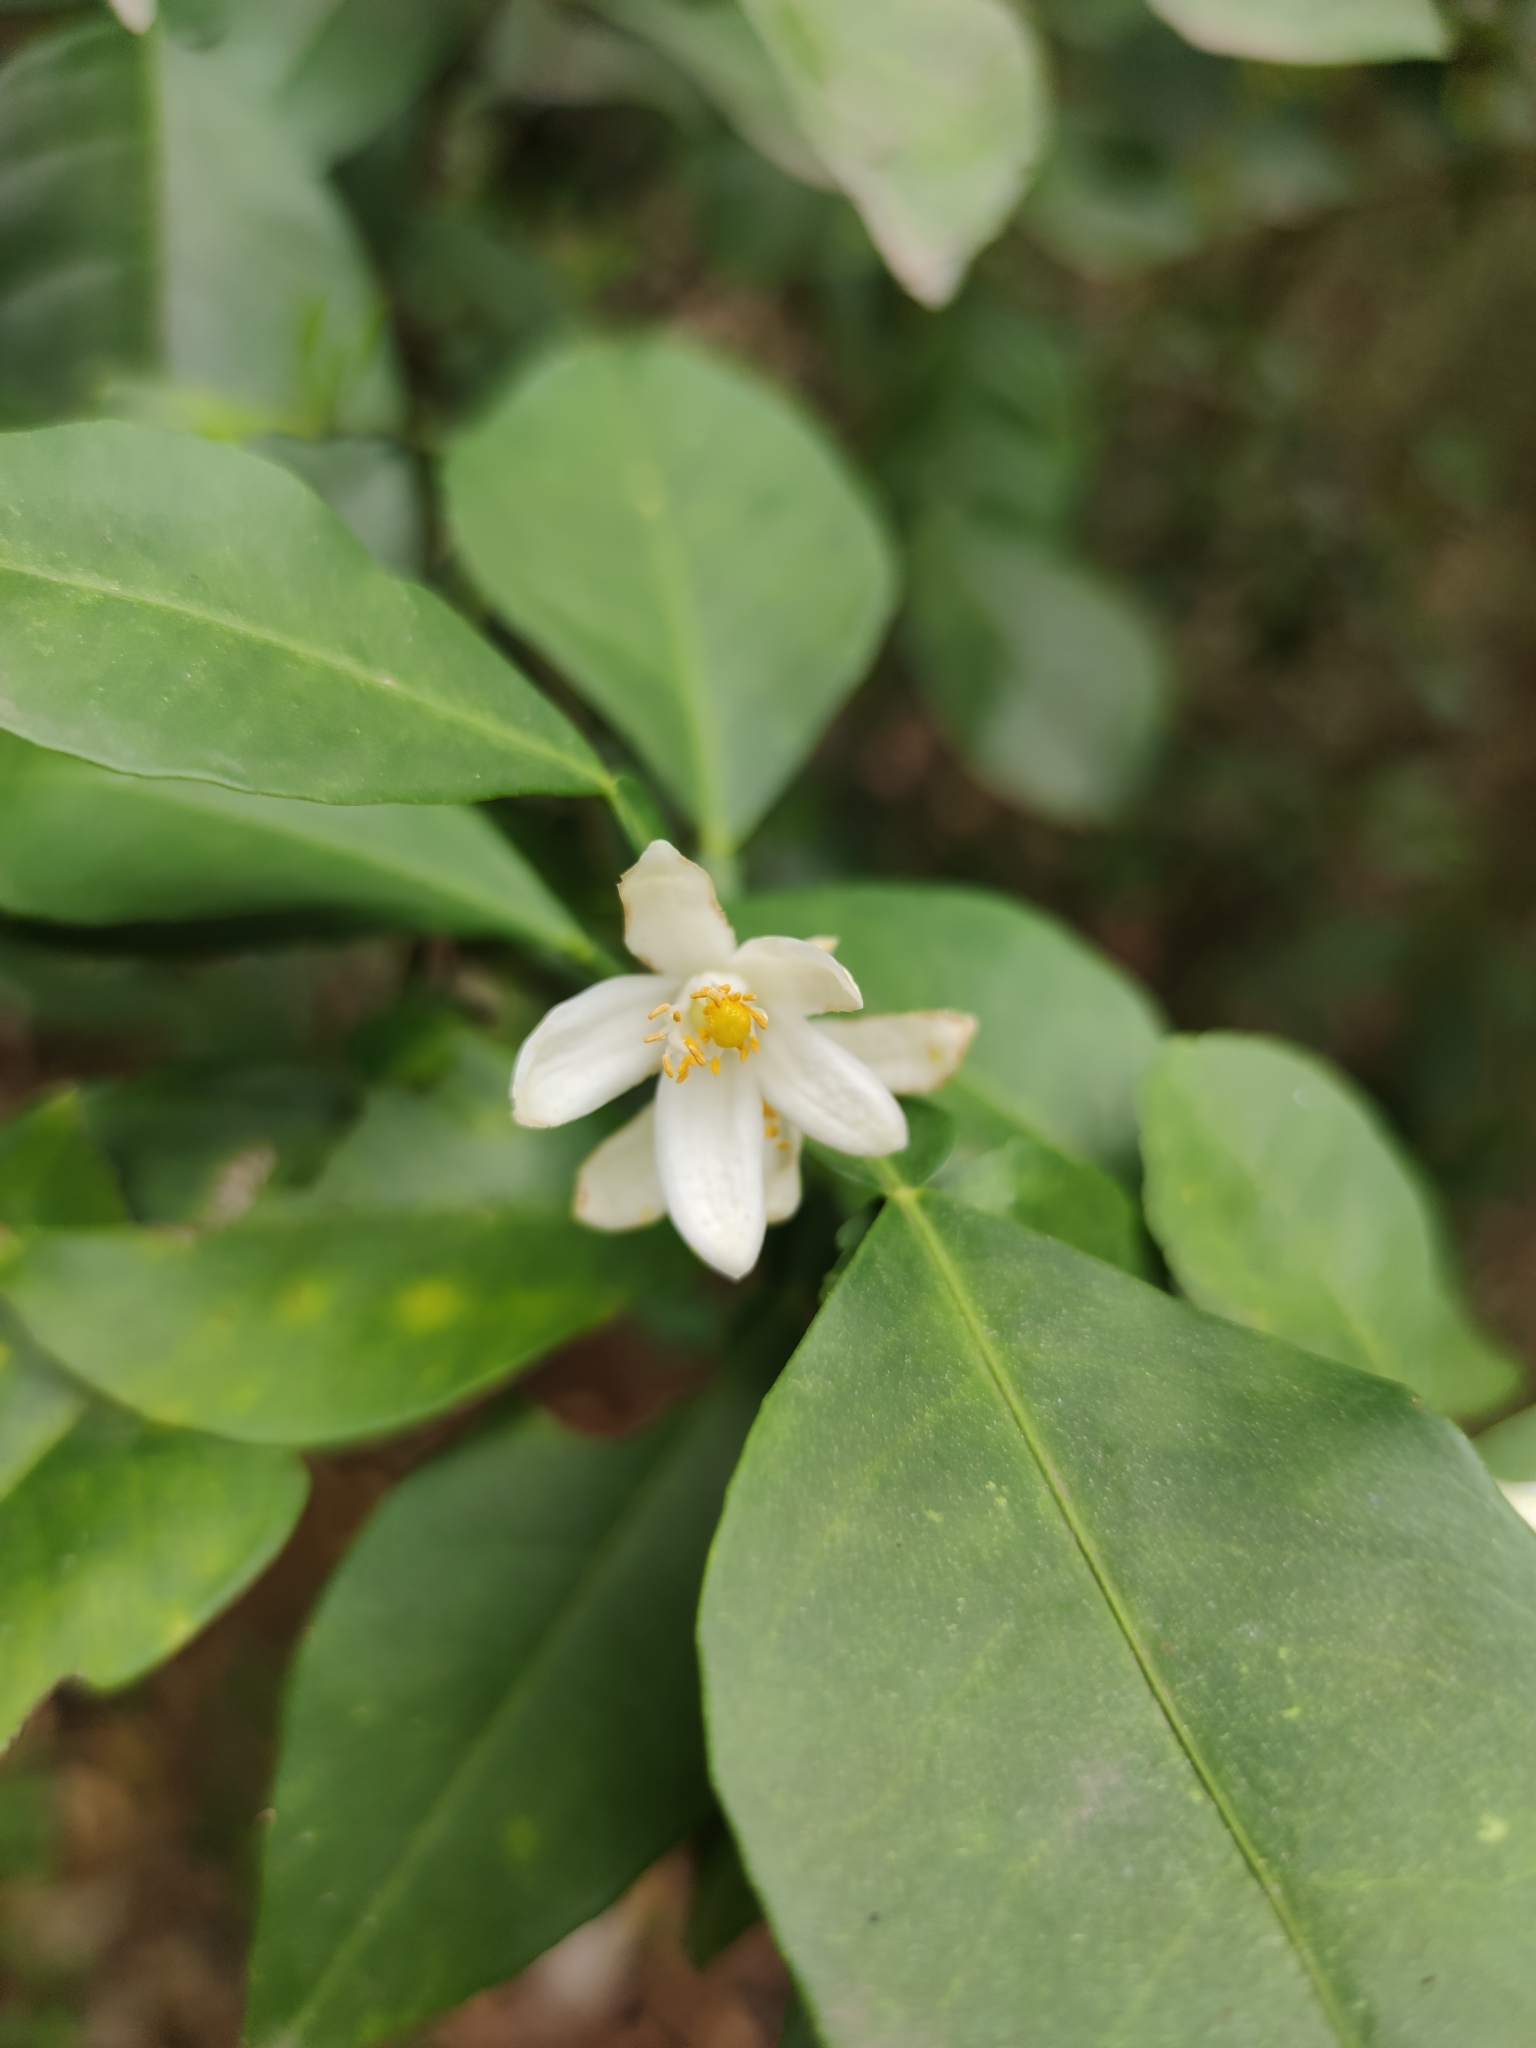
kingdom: Plantae
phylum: Tracheophyta
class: Magnoliopsida
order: Sapindales
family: Rutaceae
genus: Citrus
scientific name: Citrus aurantium
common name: Sour orange
